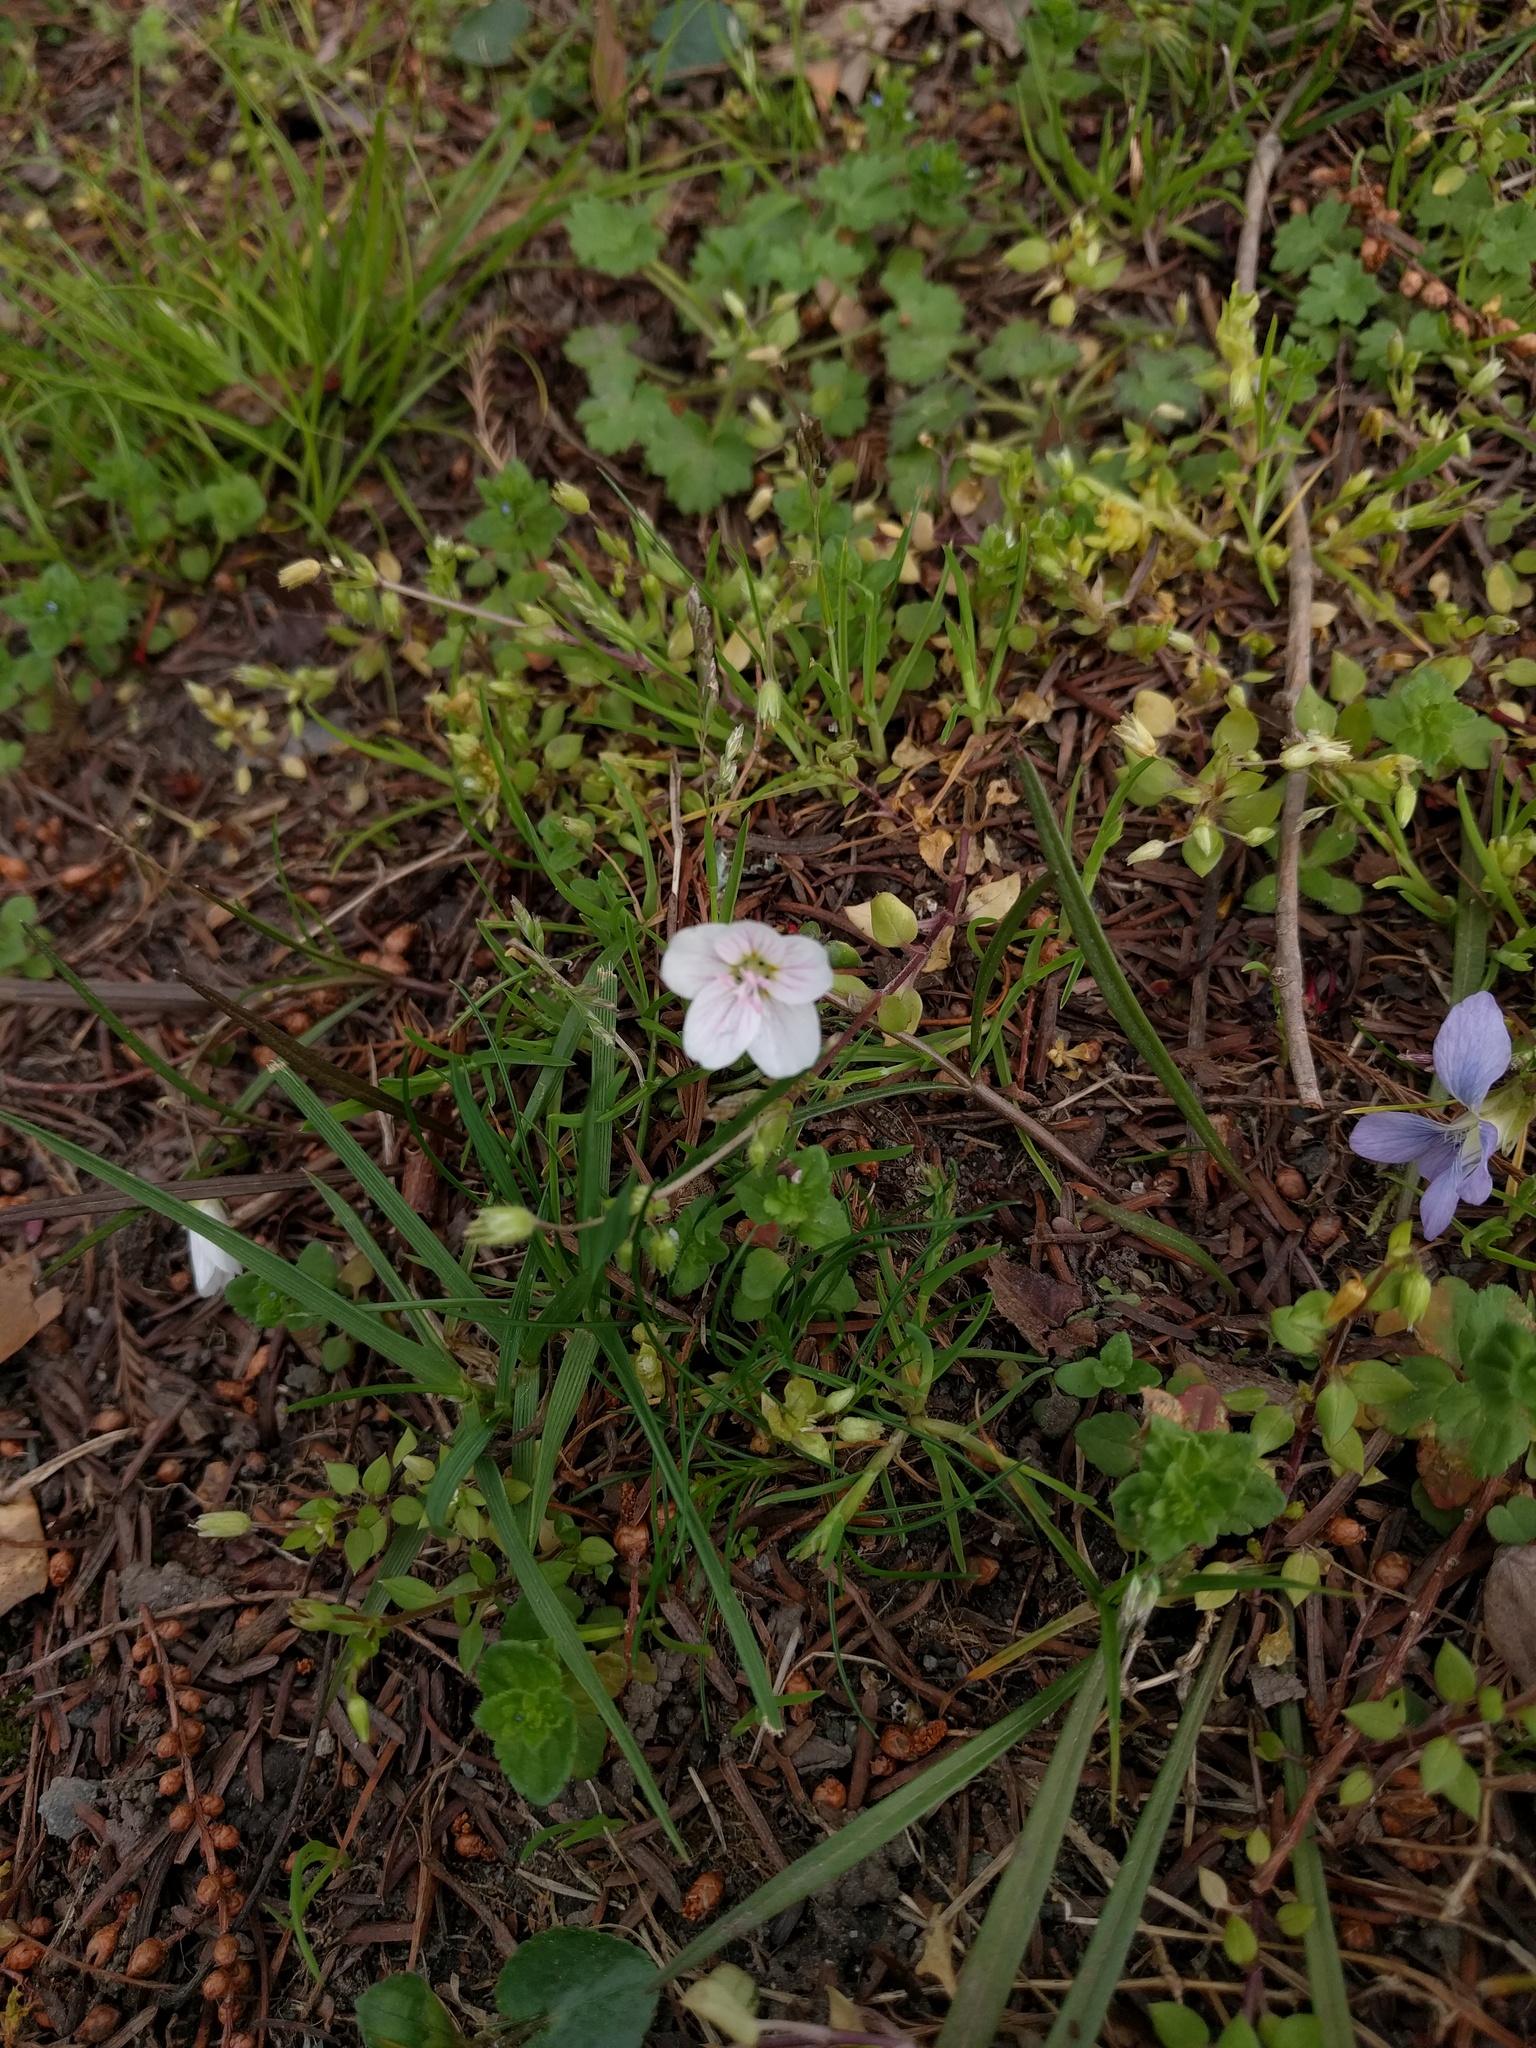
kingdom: Plantae
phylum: Tracheophyta
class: Magnoliopsida
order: Caryophyllales
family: Montiaceae
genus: Claytonia
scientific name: Claytonia virginica
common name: Virginia springbeauty
